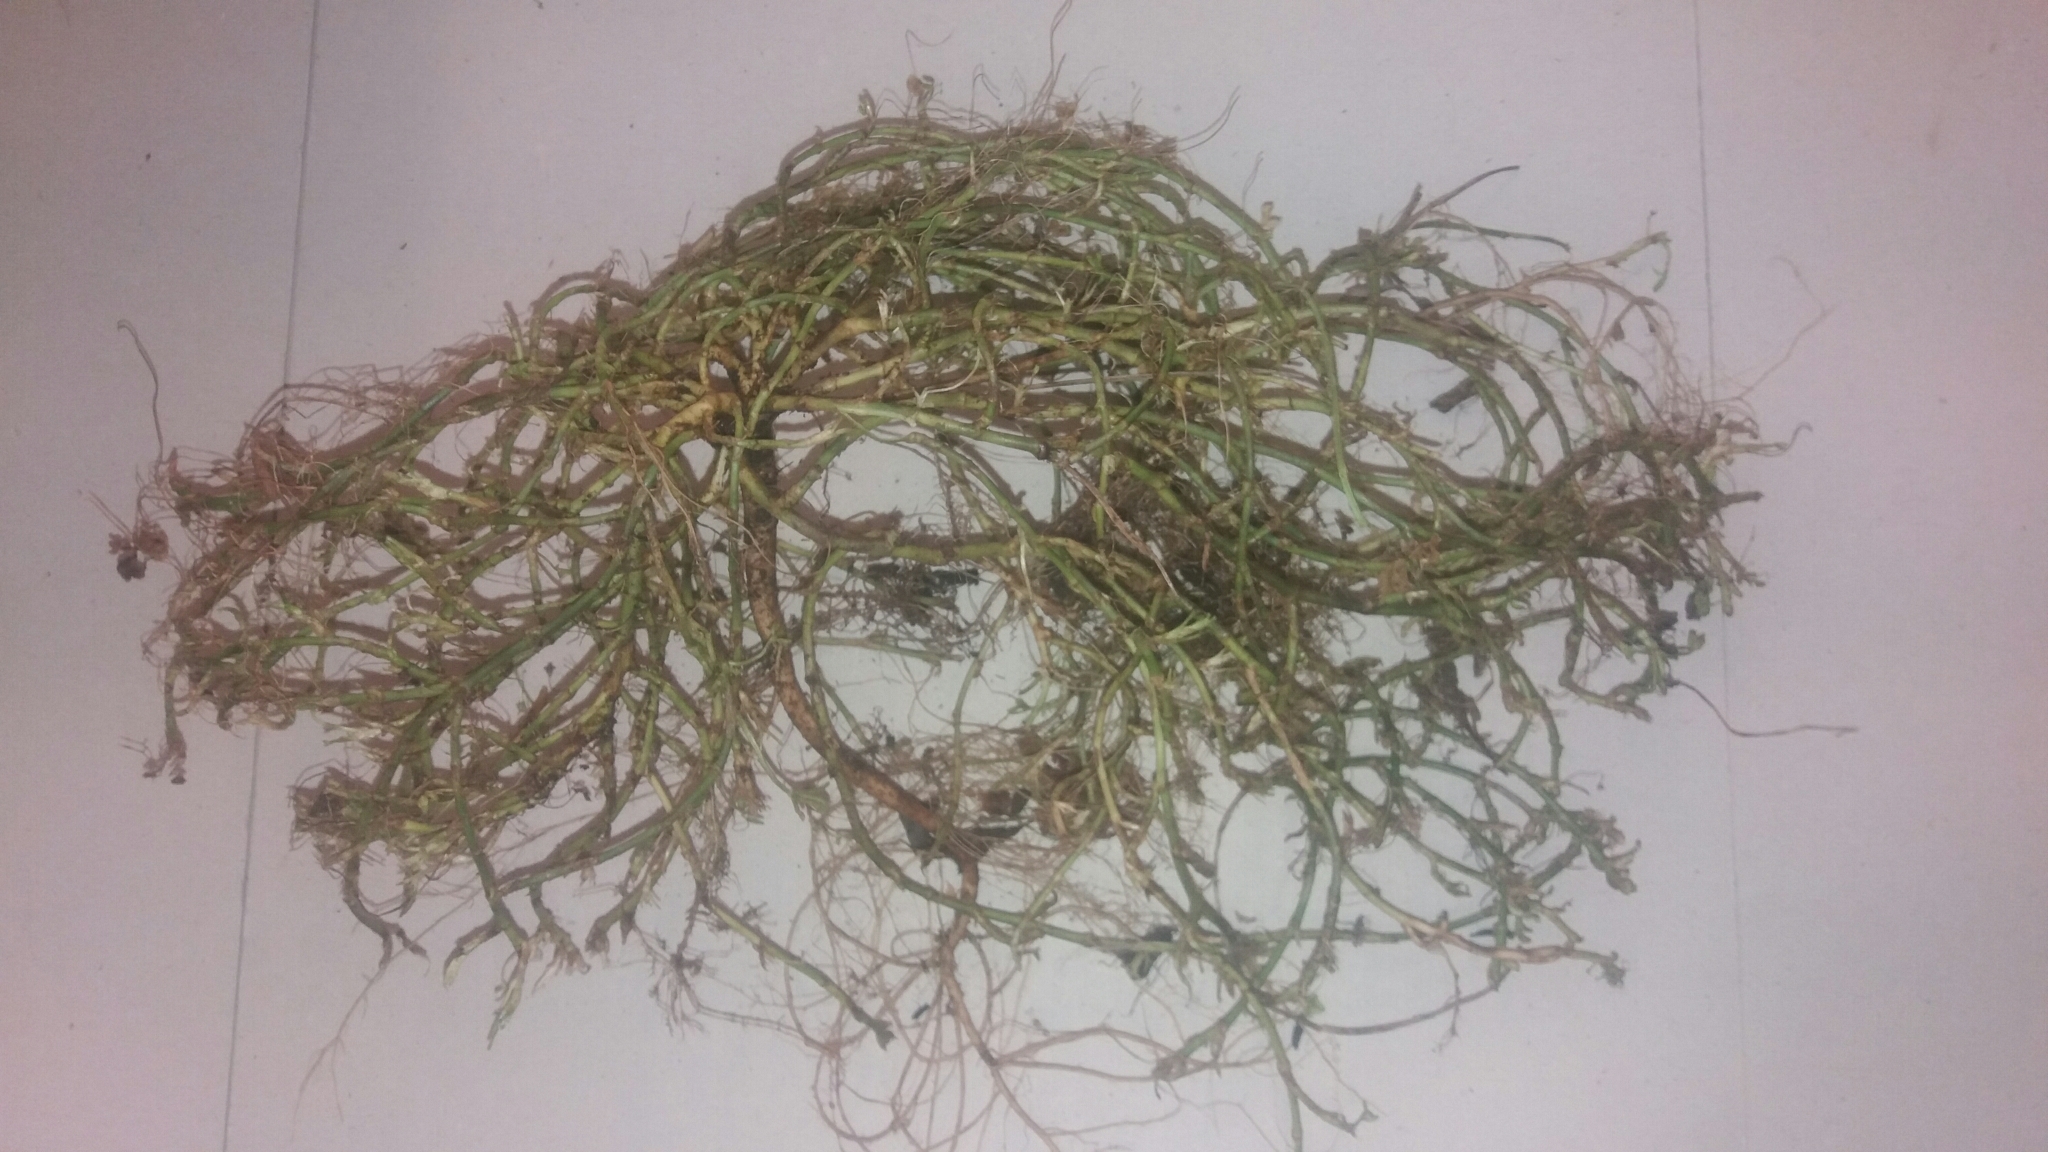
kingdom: Plantae
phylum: Tracheophyta
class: Magnoliopsida
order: Fabales
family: Fabaceae
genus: Trifolium
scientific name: Trifolium subterraneum
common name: Subterranean clover
